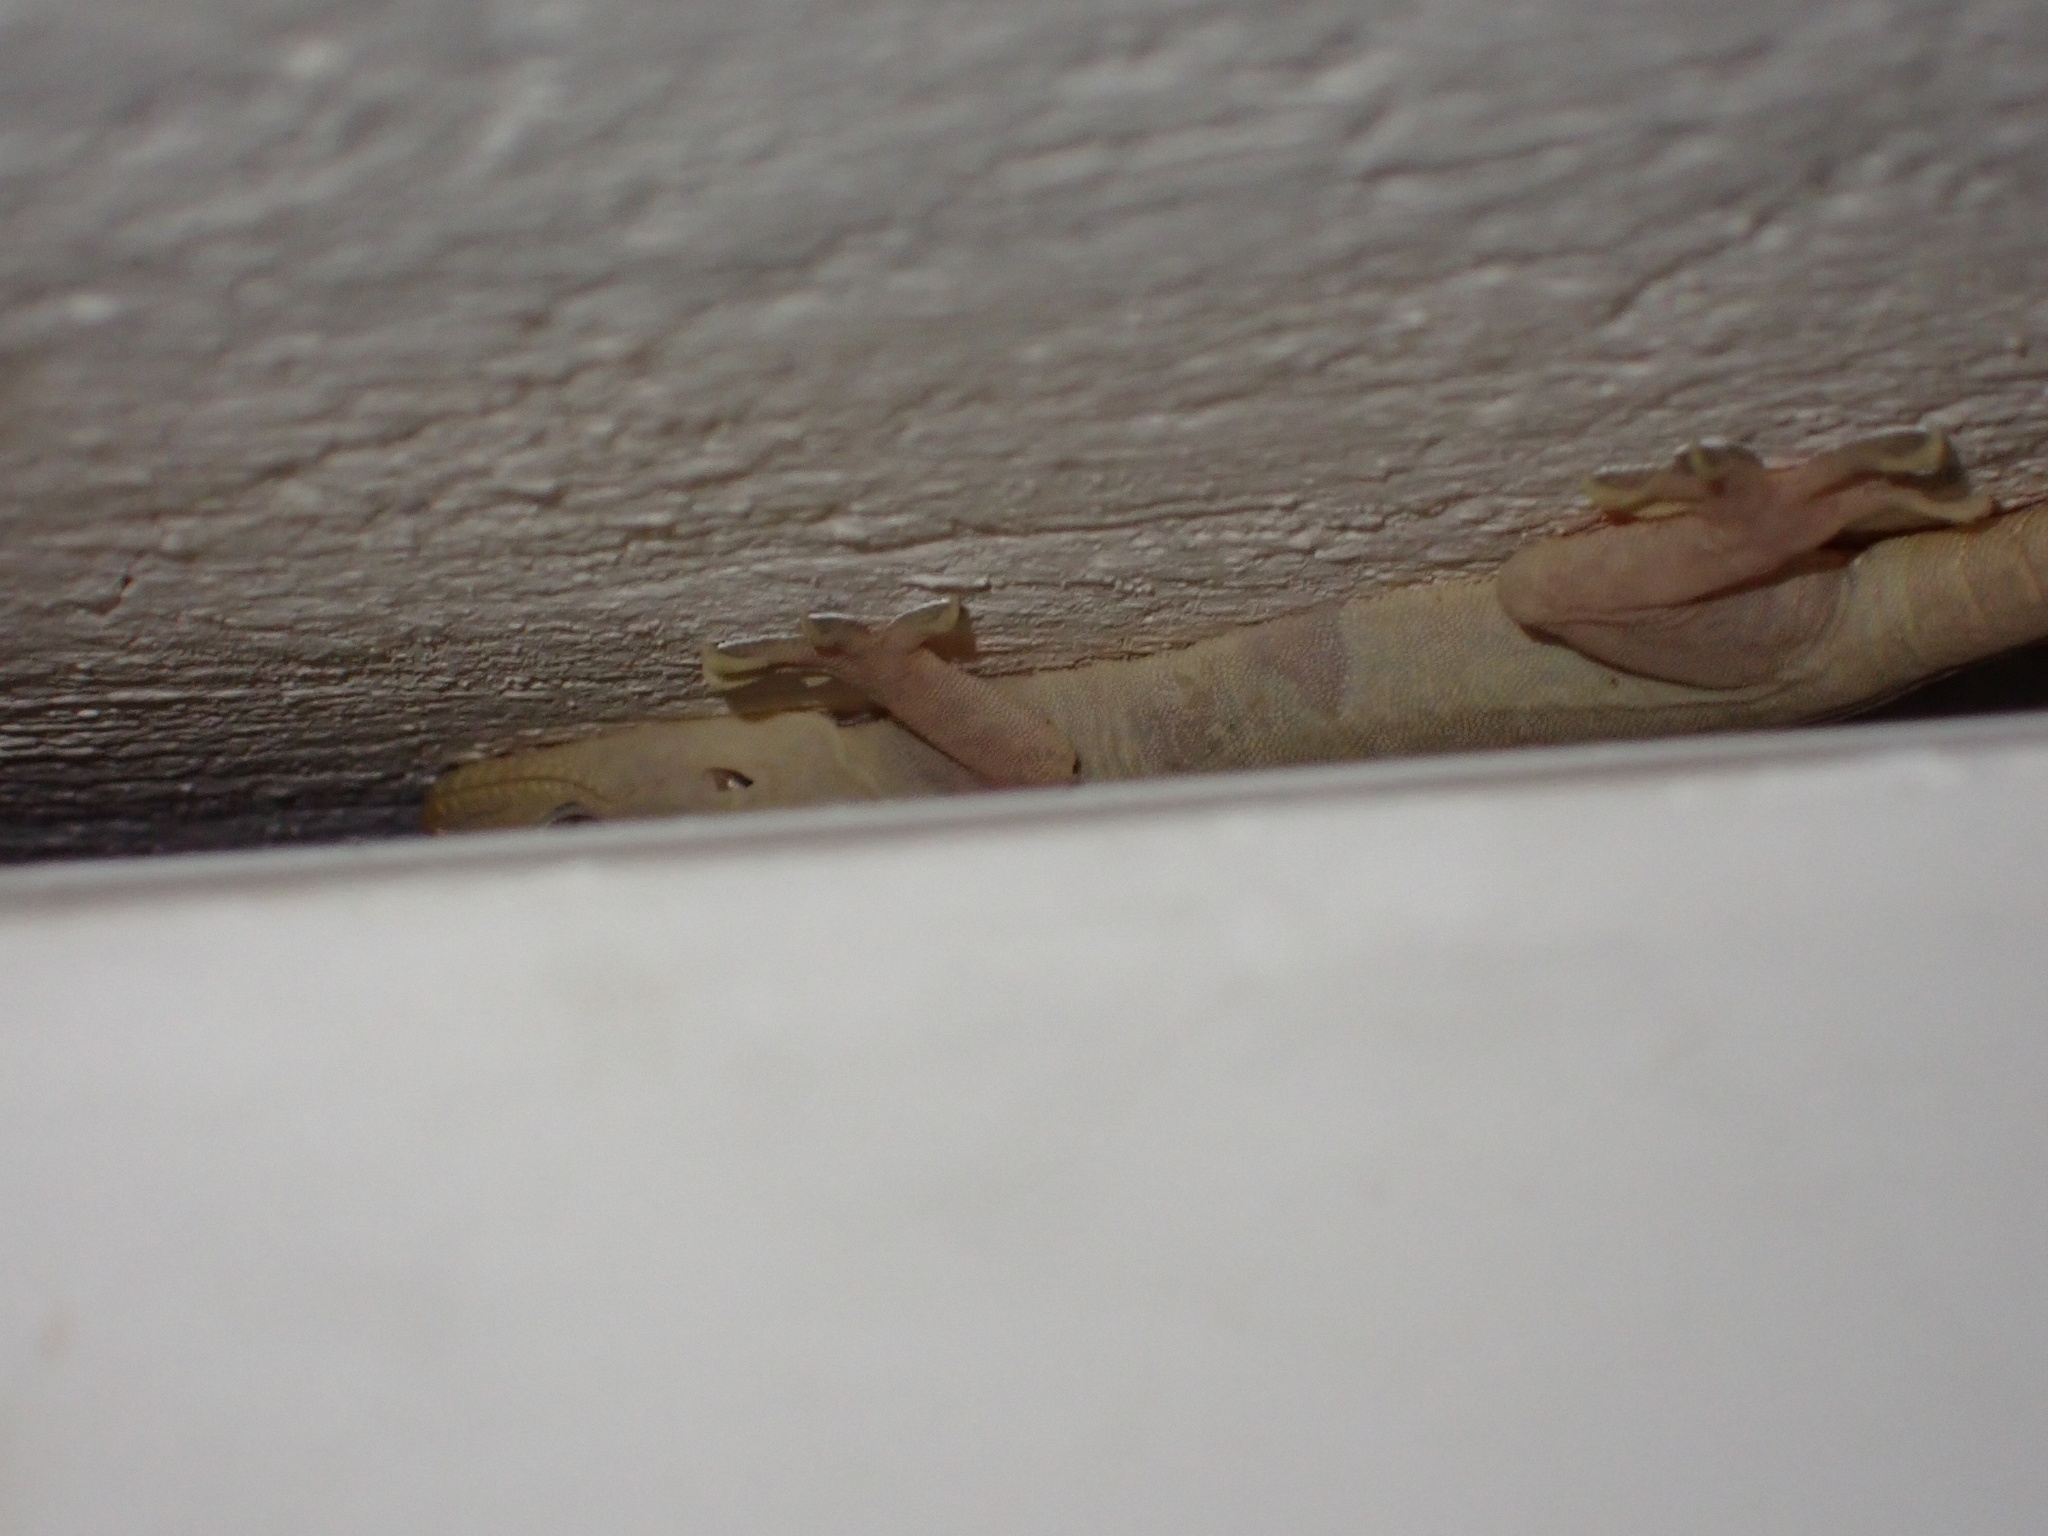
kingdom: Animalia
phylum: Chordata
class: Squamata
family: Gekkonidae
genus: Hemidactylus
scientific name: Hemidactylus flaviviridis
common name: Northern house gecko
